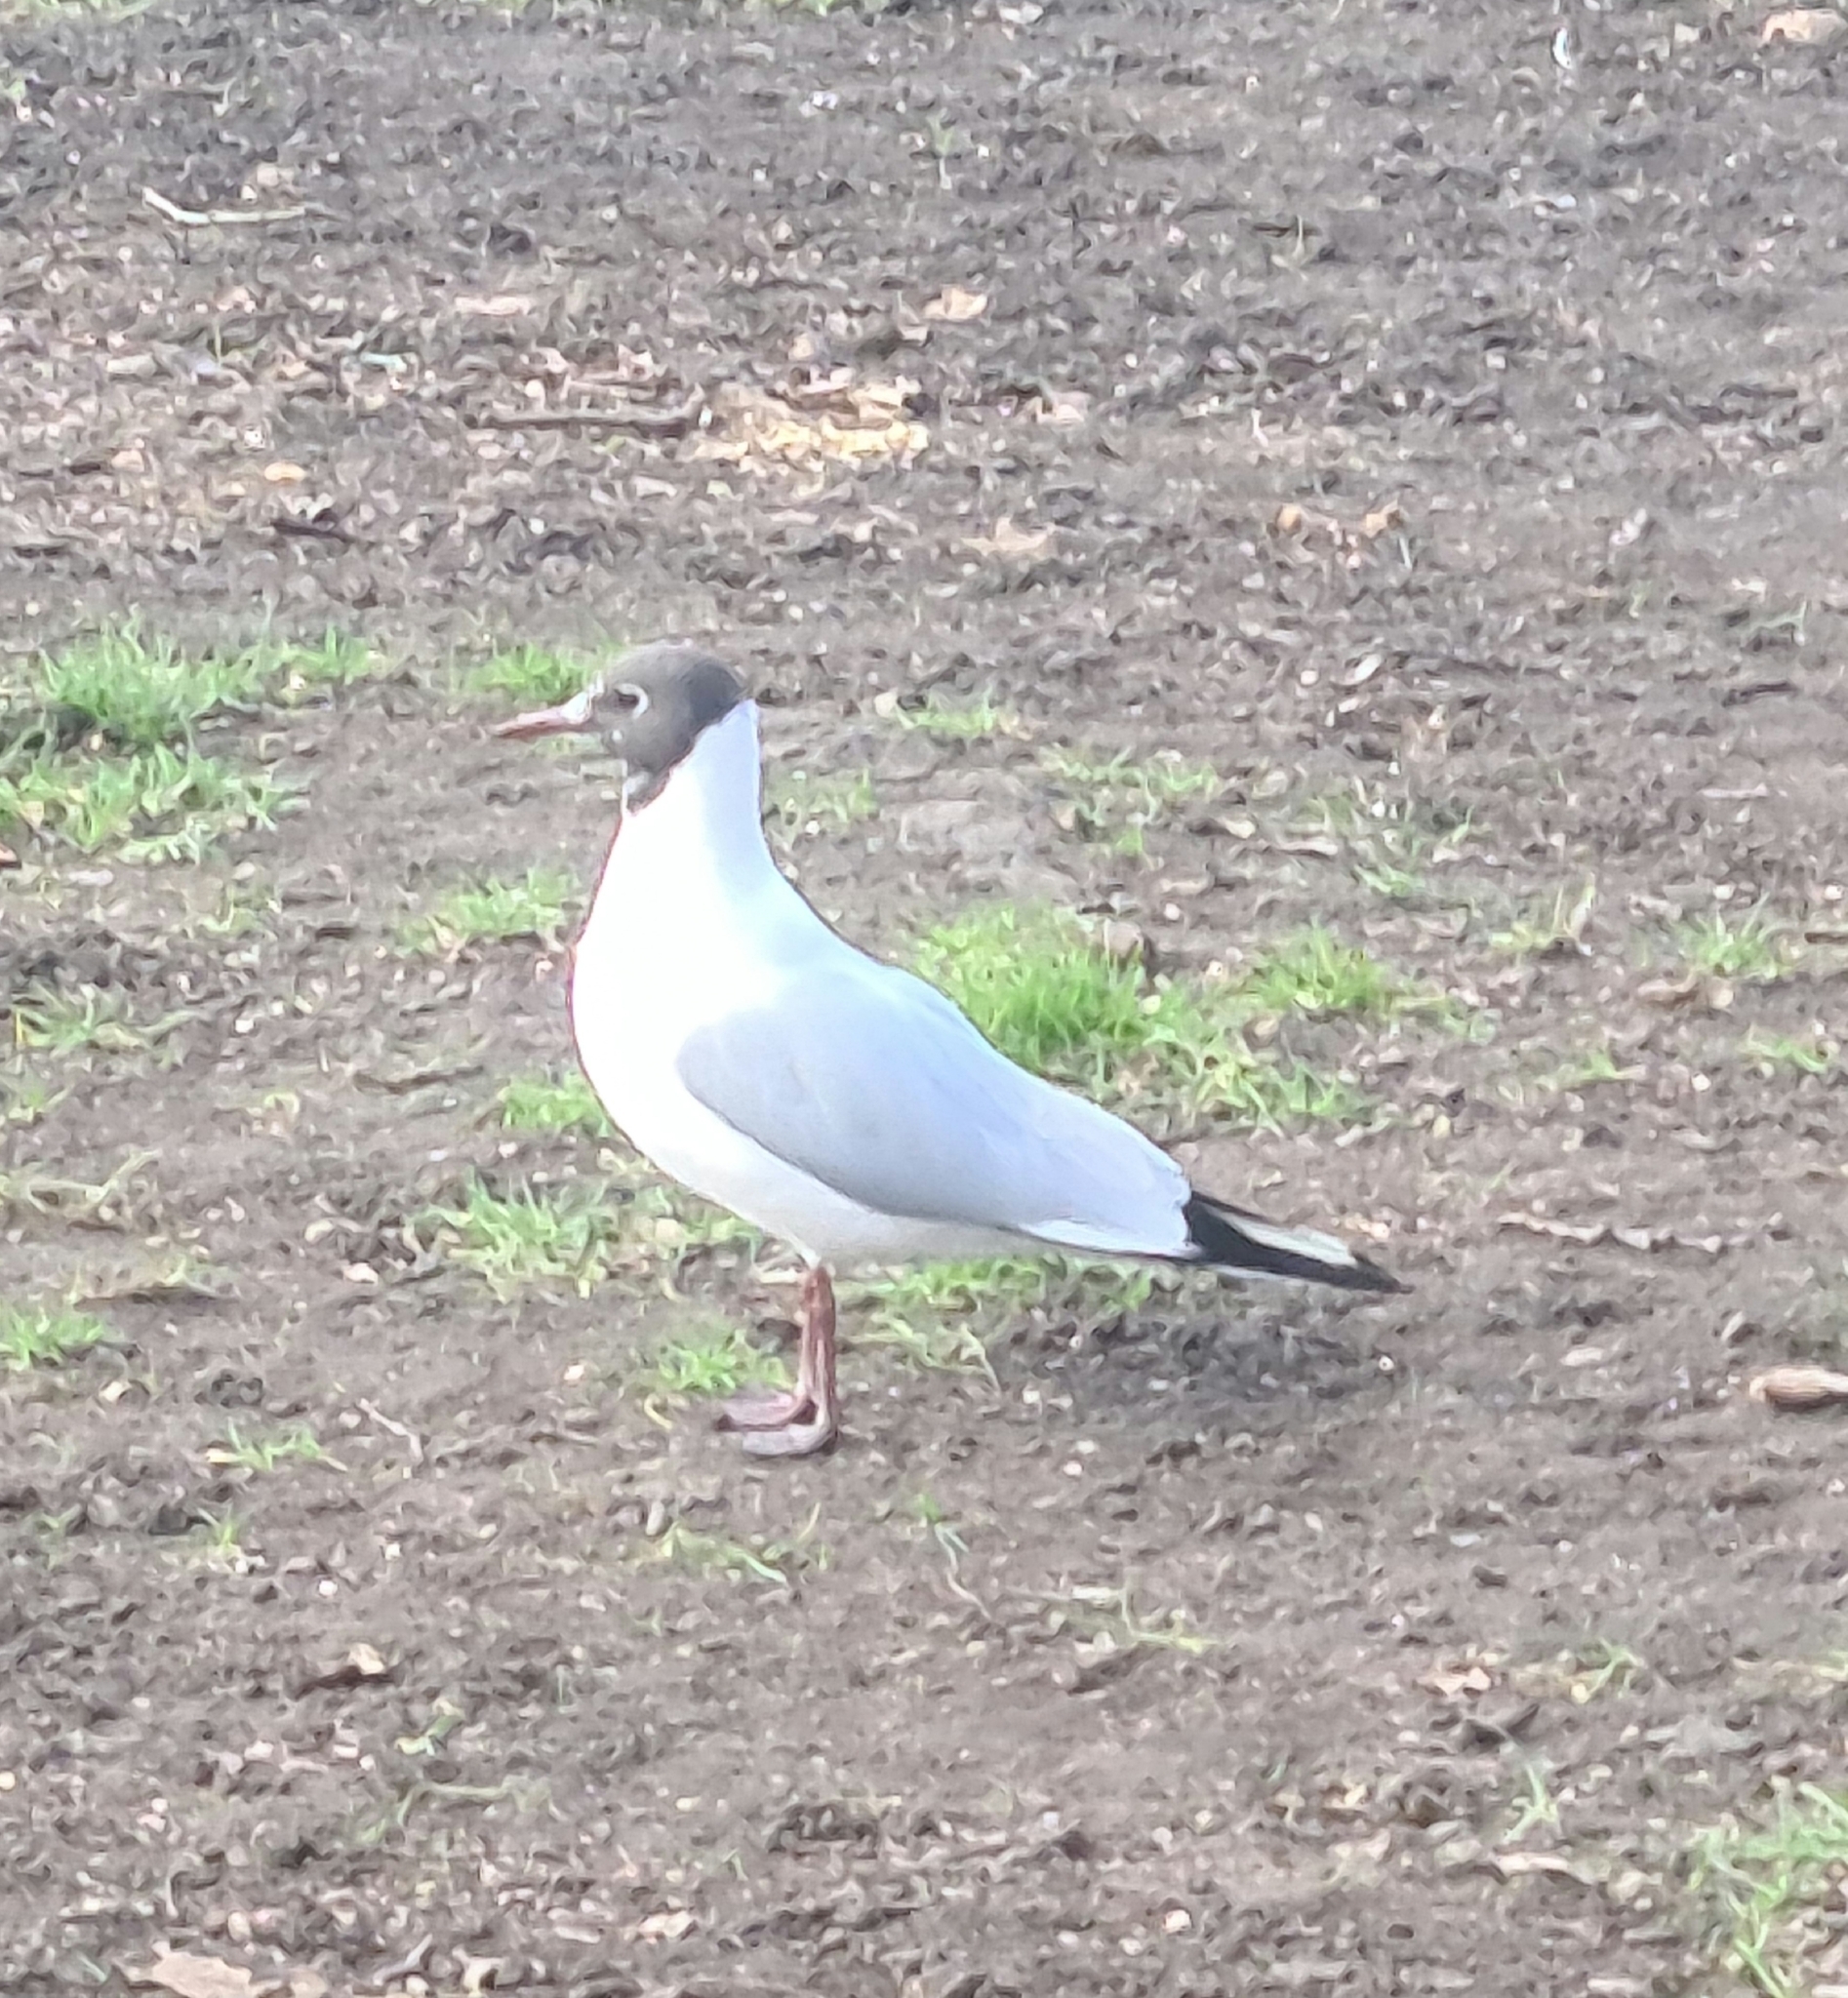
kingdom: Animalia
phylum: Chordata
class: Aves
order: Charadriiformes
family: Laridae
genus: Chroicocephalus
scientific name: Chroicocephalus ridibundus
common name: Black-headed gull
